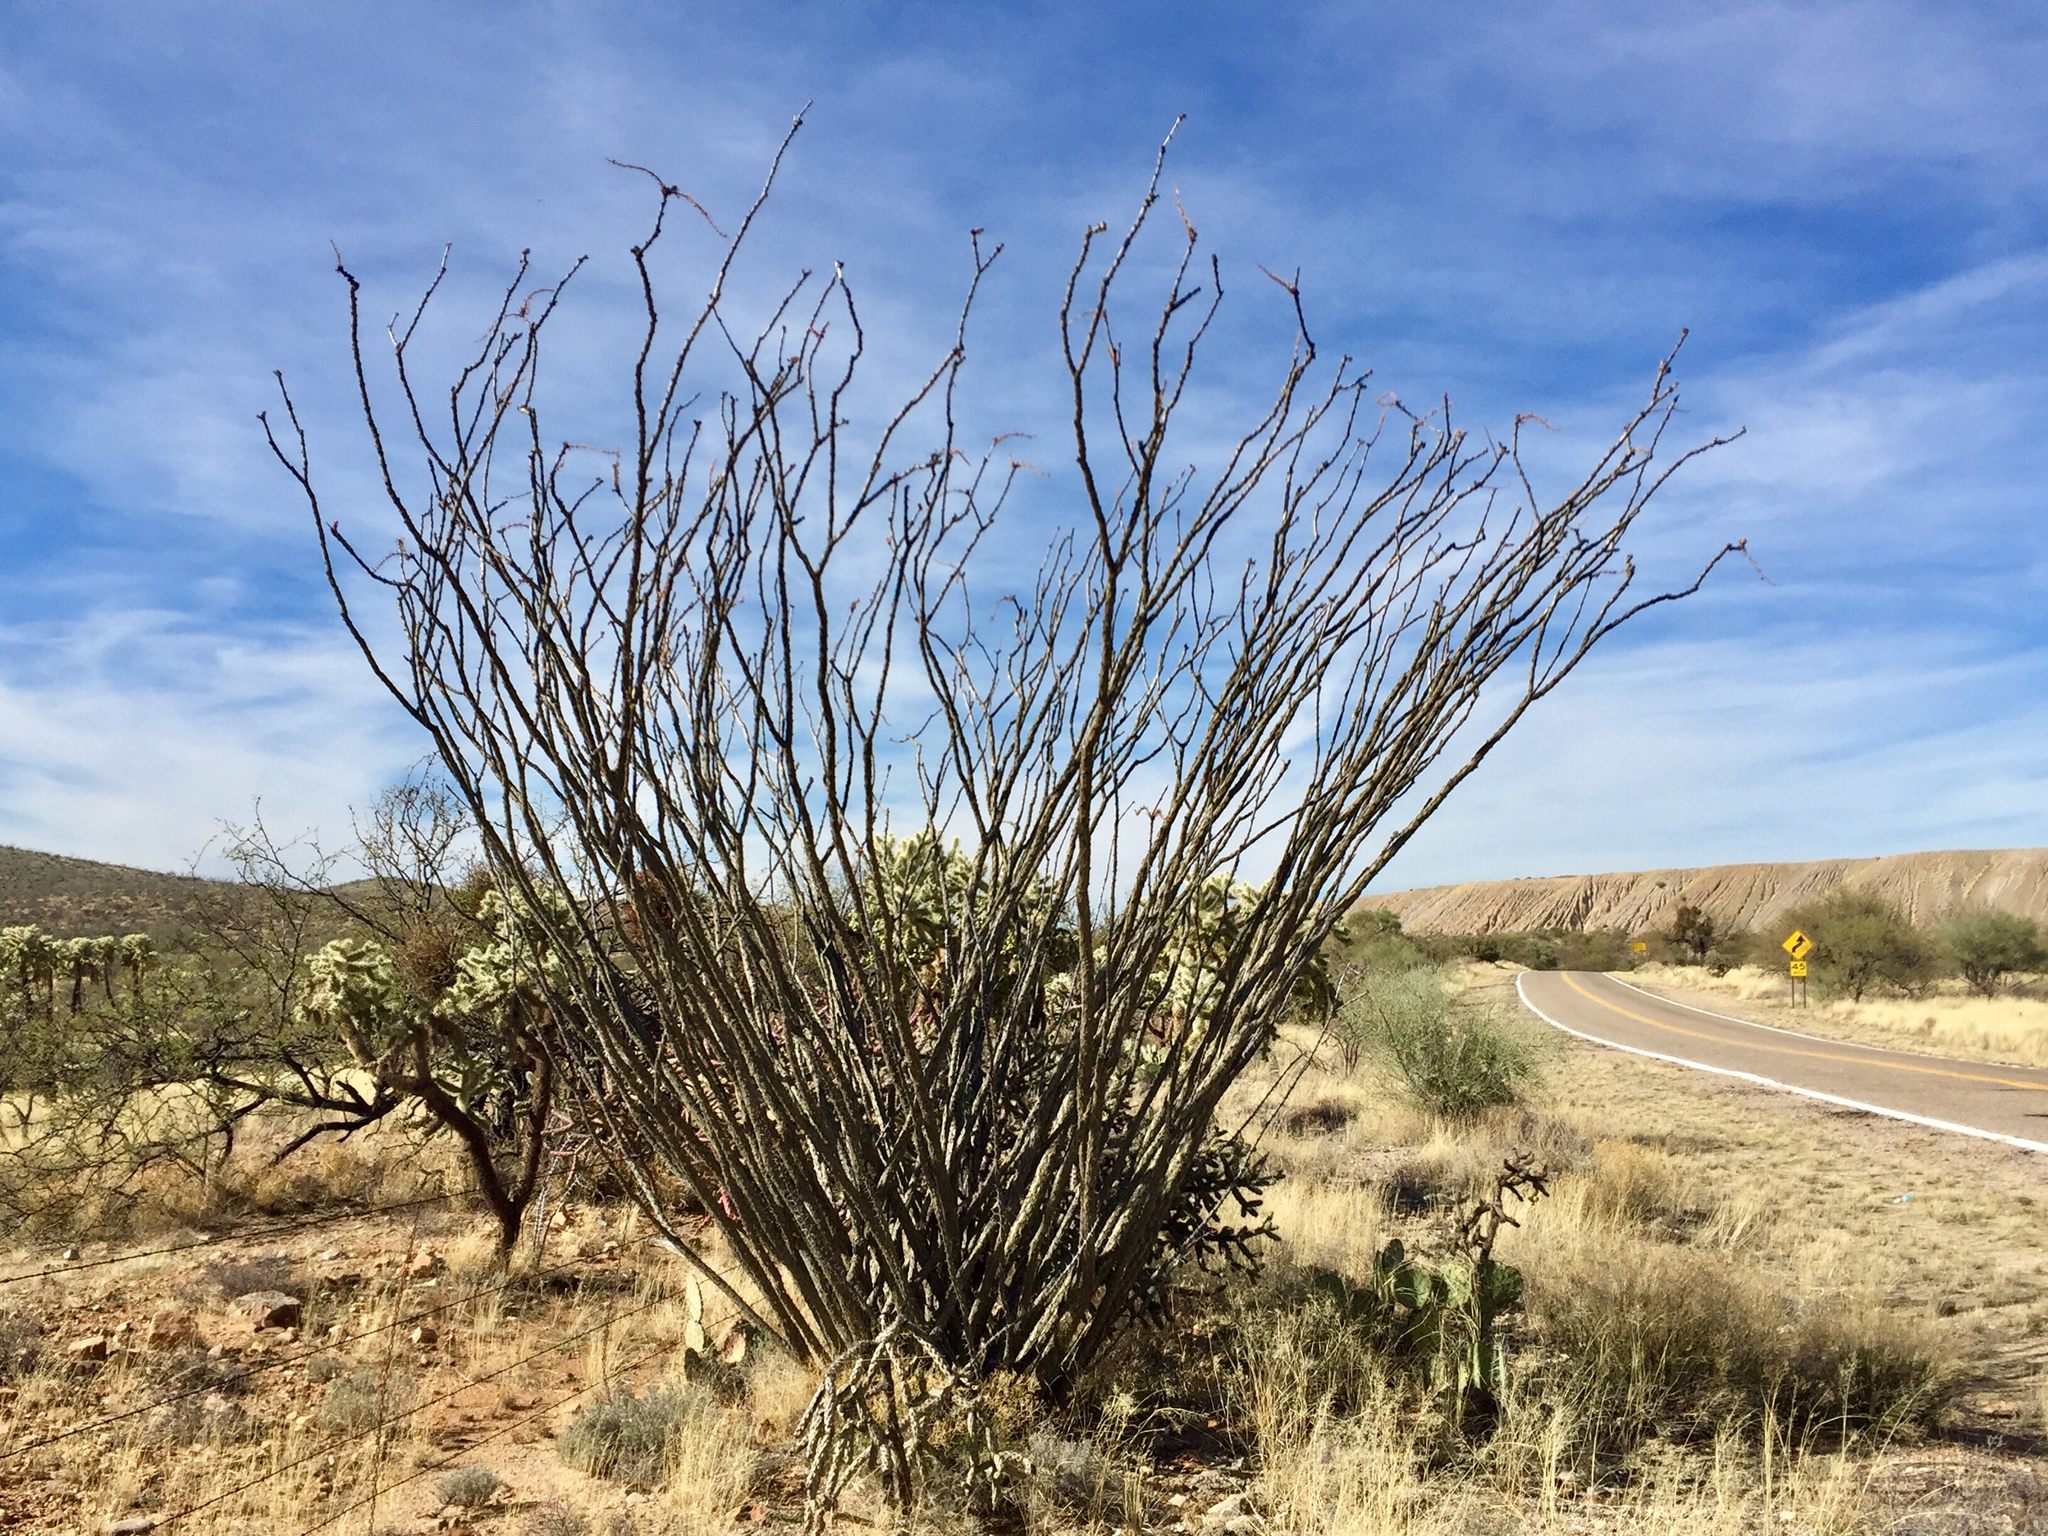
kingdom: Plantae
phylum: Tracheophyta
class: Magnoliopsida
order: Ericales
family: Fouquieriaceae
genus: Fouquieria
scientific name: Fouquieria splendens
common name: Vine-cactus
